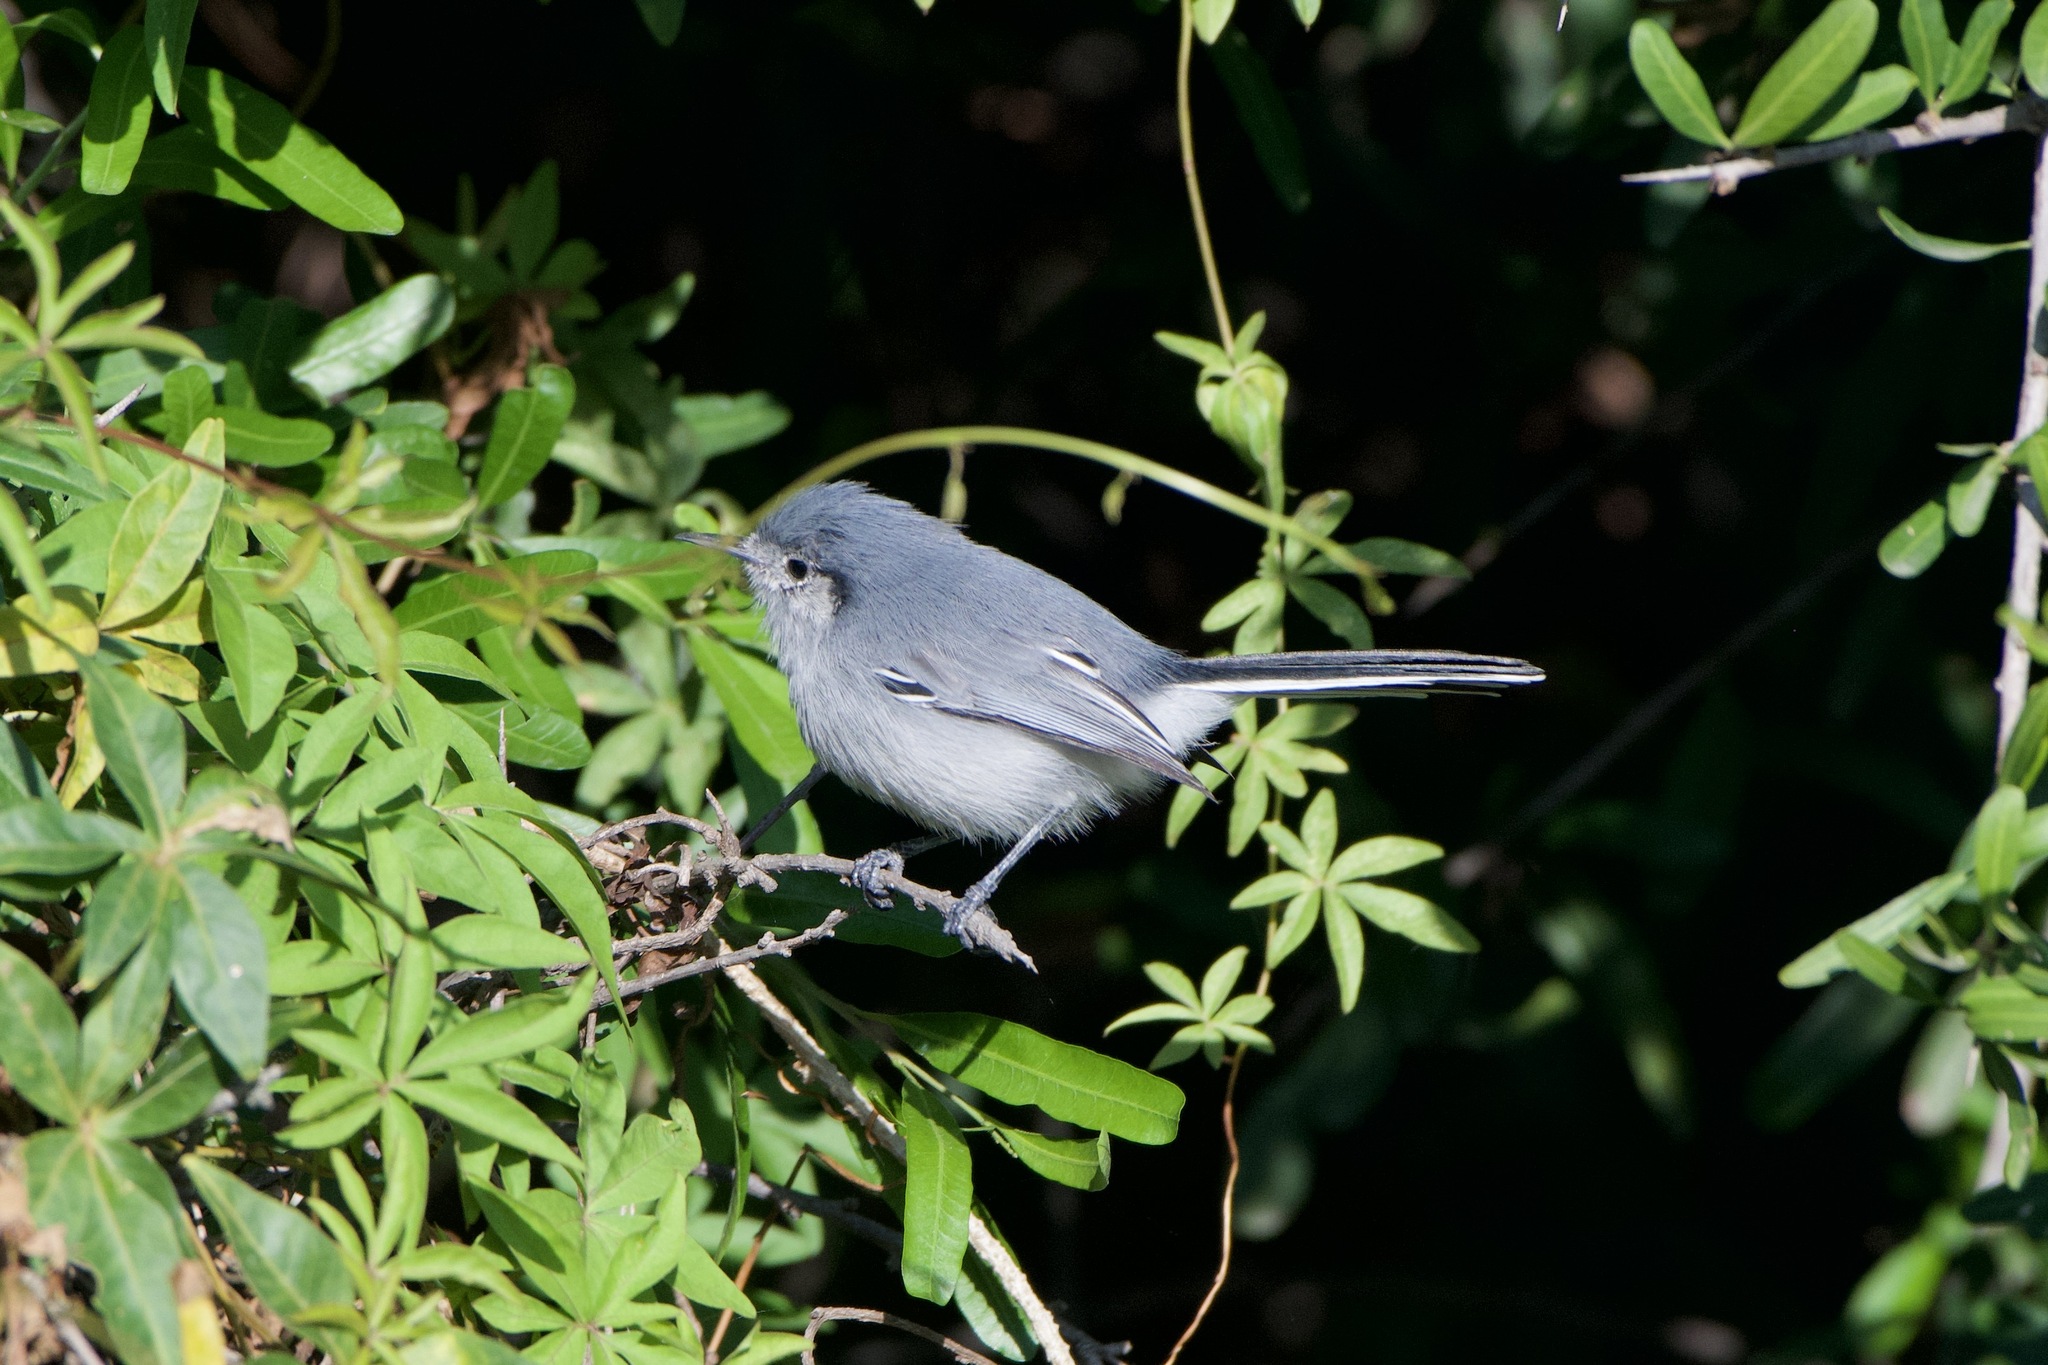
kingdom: Animalia
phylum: Chordata
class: Aves
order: Passeriformes
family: Polioptilidae
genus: Polioptila
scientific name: Polioptila dumicola
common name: Masked gnatcatcher
